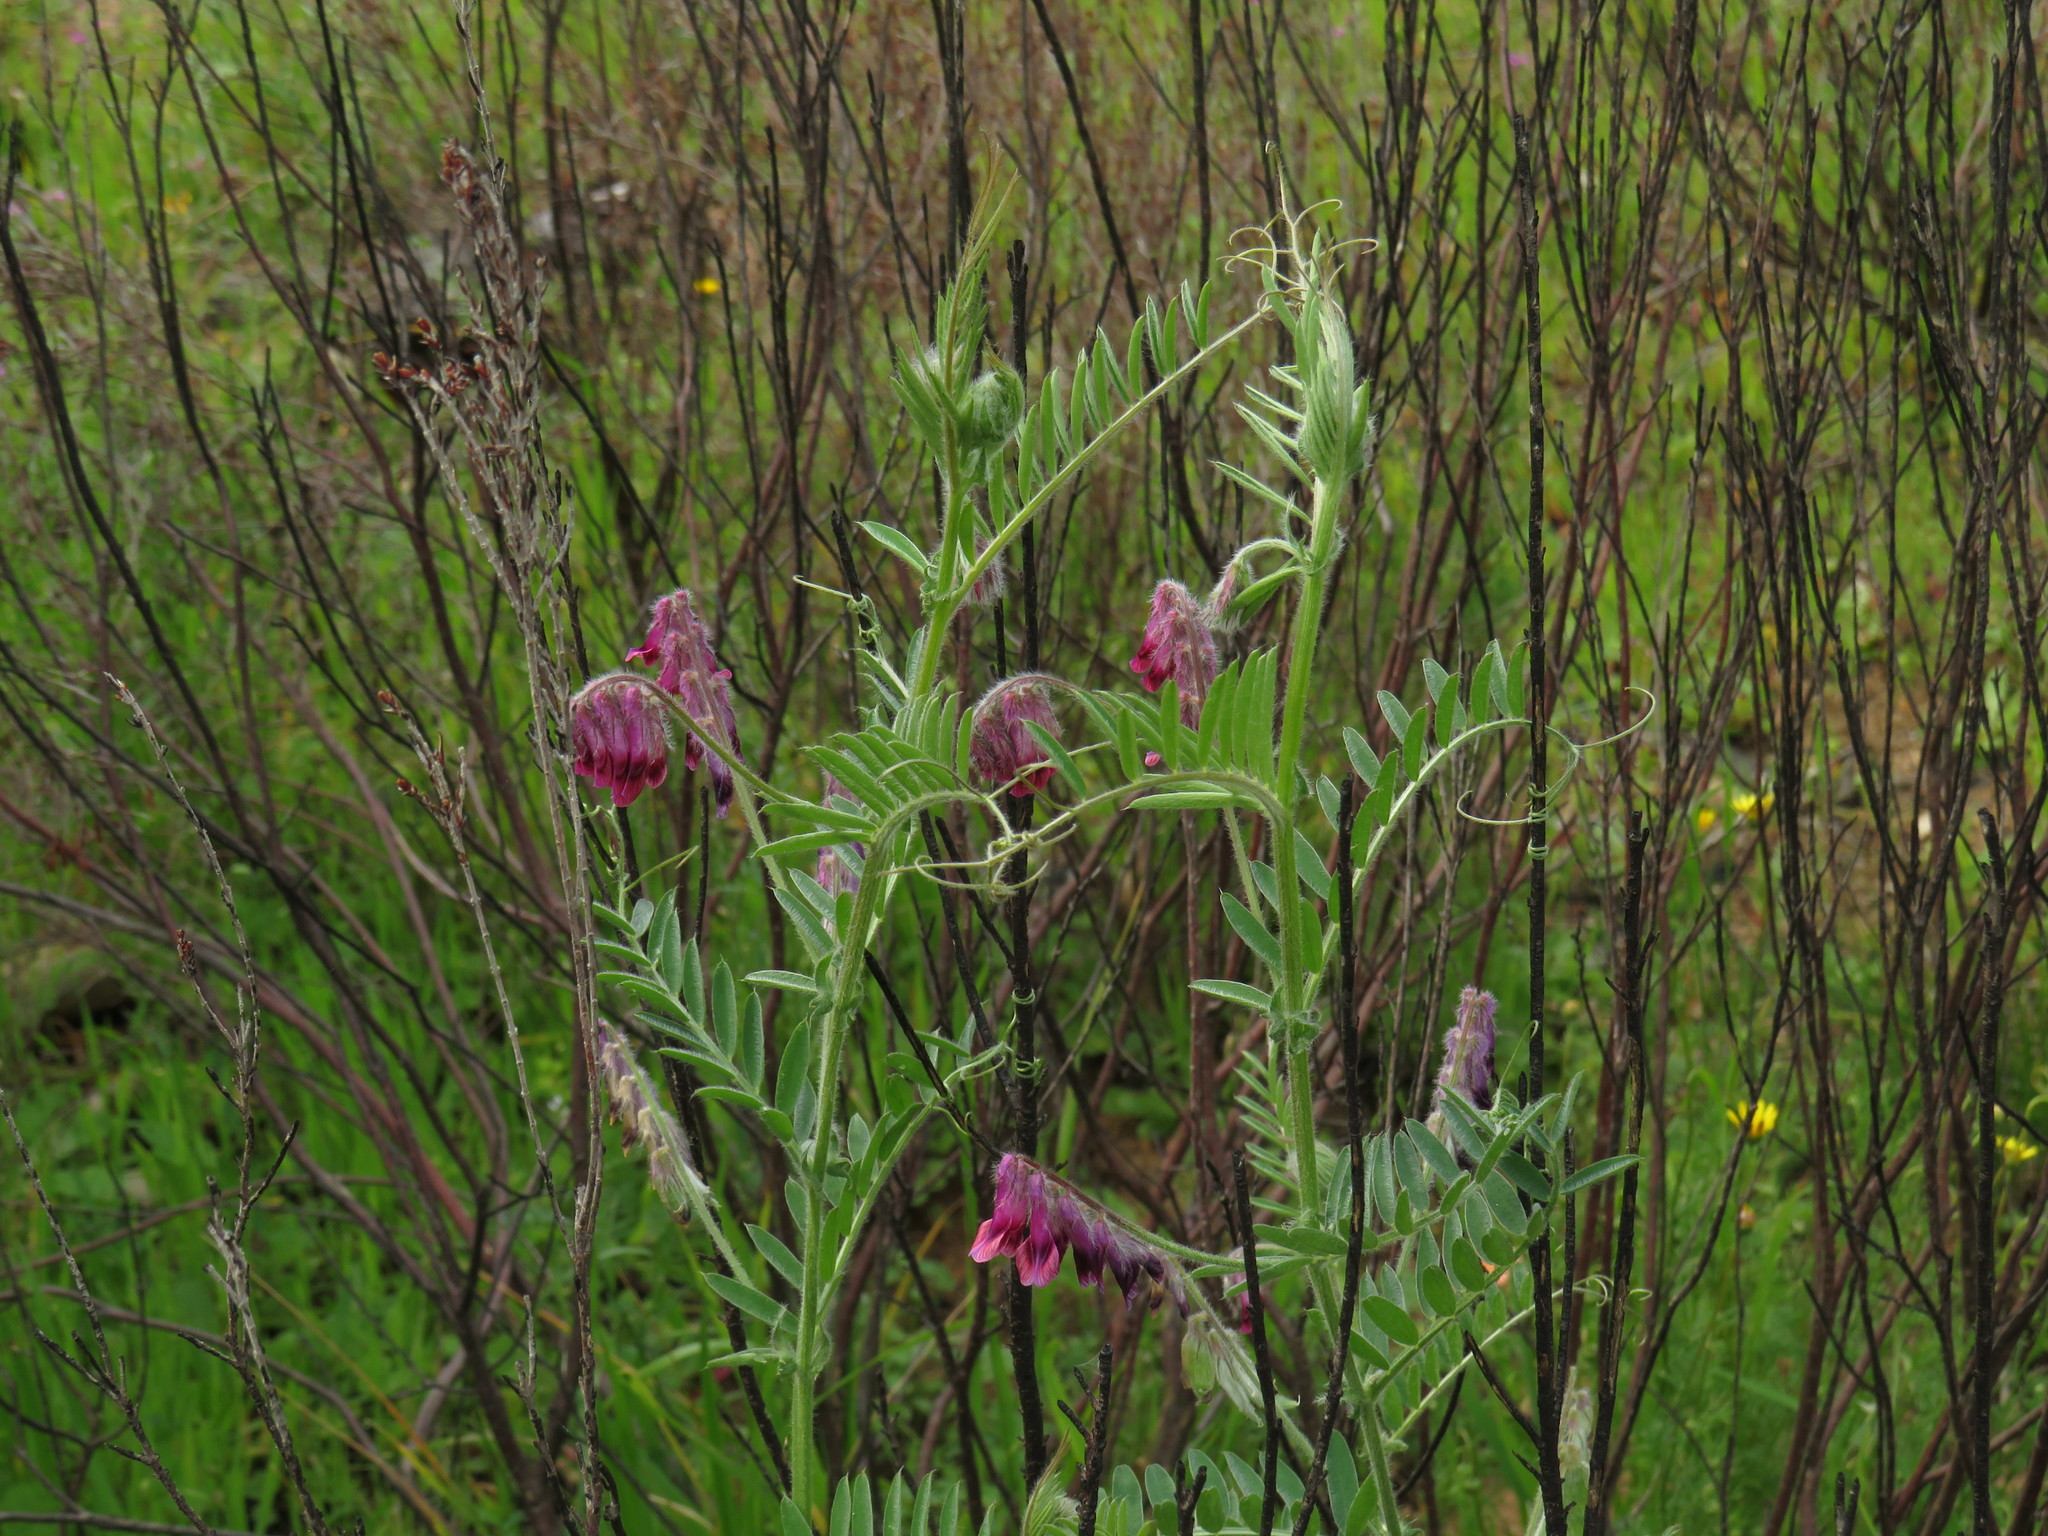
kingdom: Plantae
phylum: Tracheophyta
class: Magnoliopsida
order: Fabales
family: Fabaceae
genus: Vicia
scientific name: Vicia benghalensis
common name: Purple vetch
